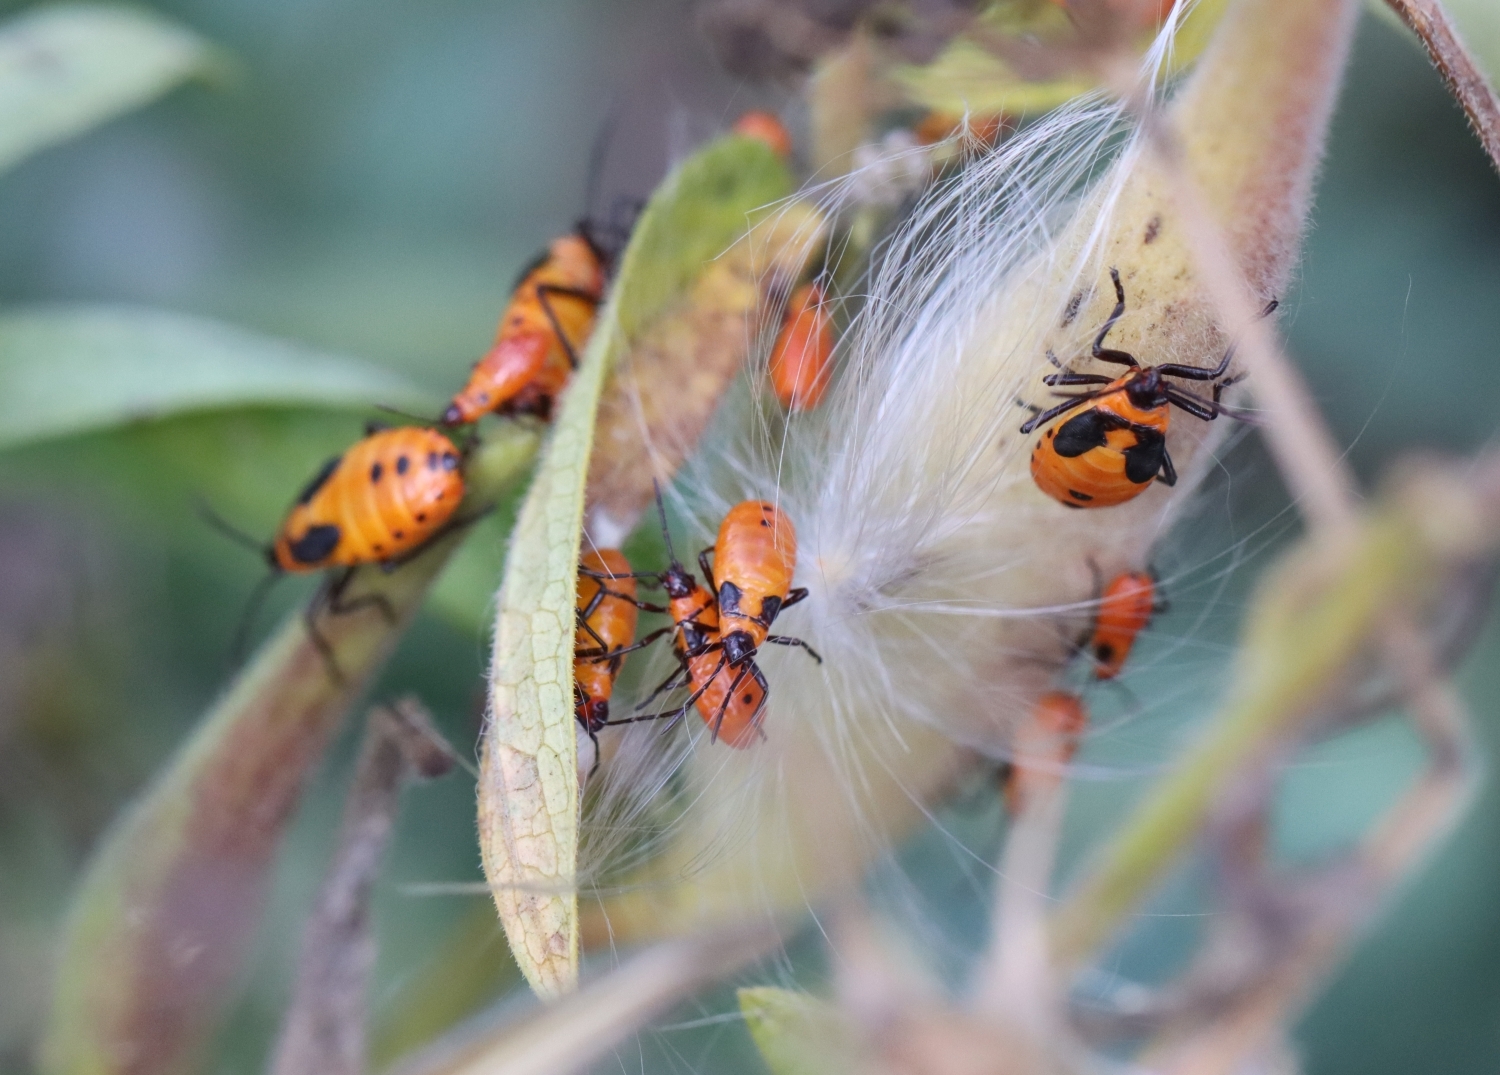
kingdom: Animalia
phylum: Arthropoda
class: Insecta
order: Hemiptera
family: Lygaeidae
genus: Oncopeltus
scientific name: Oncopeltus fasciatus
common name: Large milkweed bug
